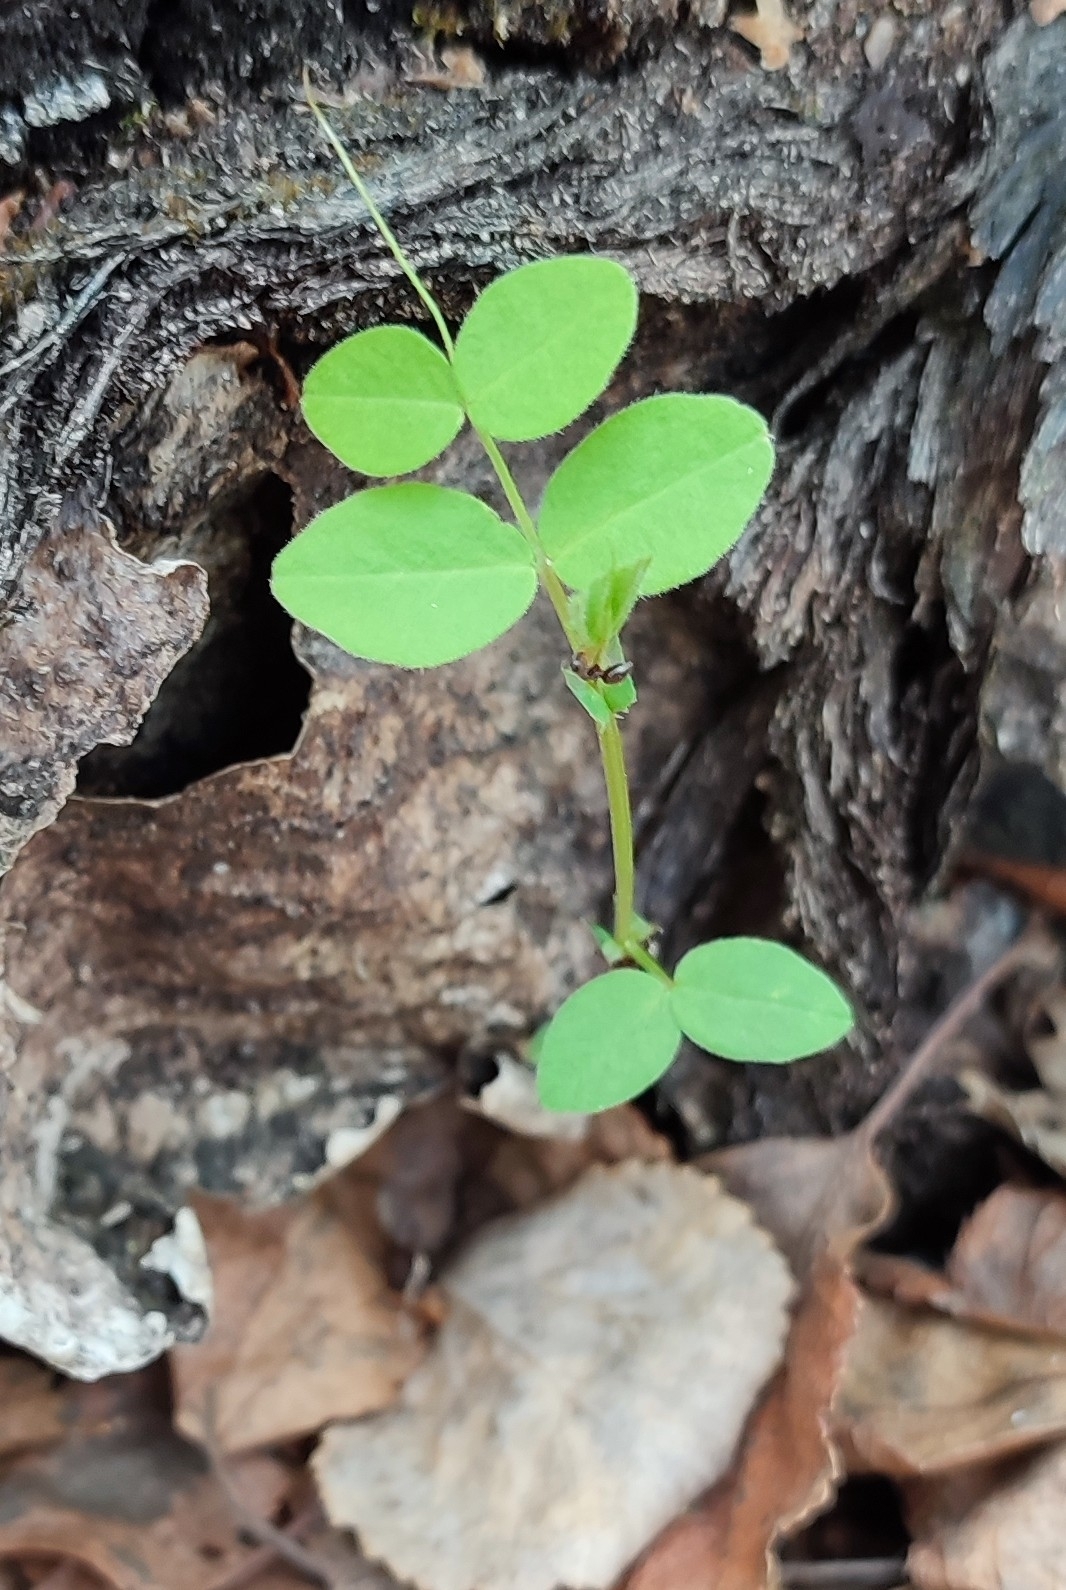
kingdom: Plantae
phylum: Tracheophyta
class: Magnoliopsida
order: Fabales
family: Fabaceae
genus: Vicia
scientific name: Vicia sepium
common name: Bush vetch
